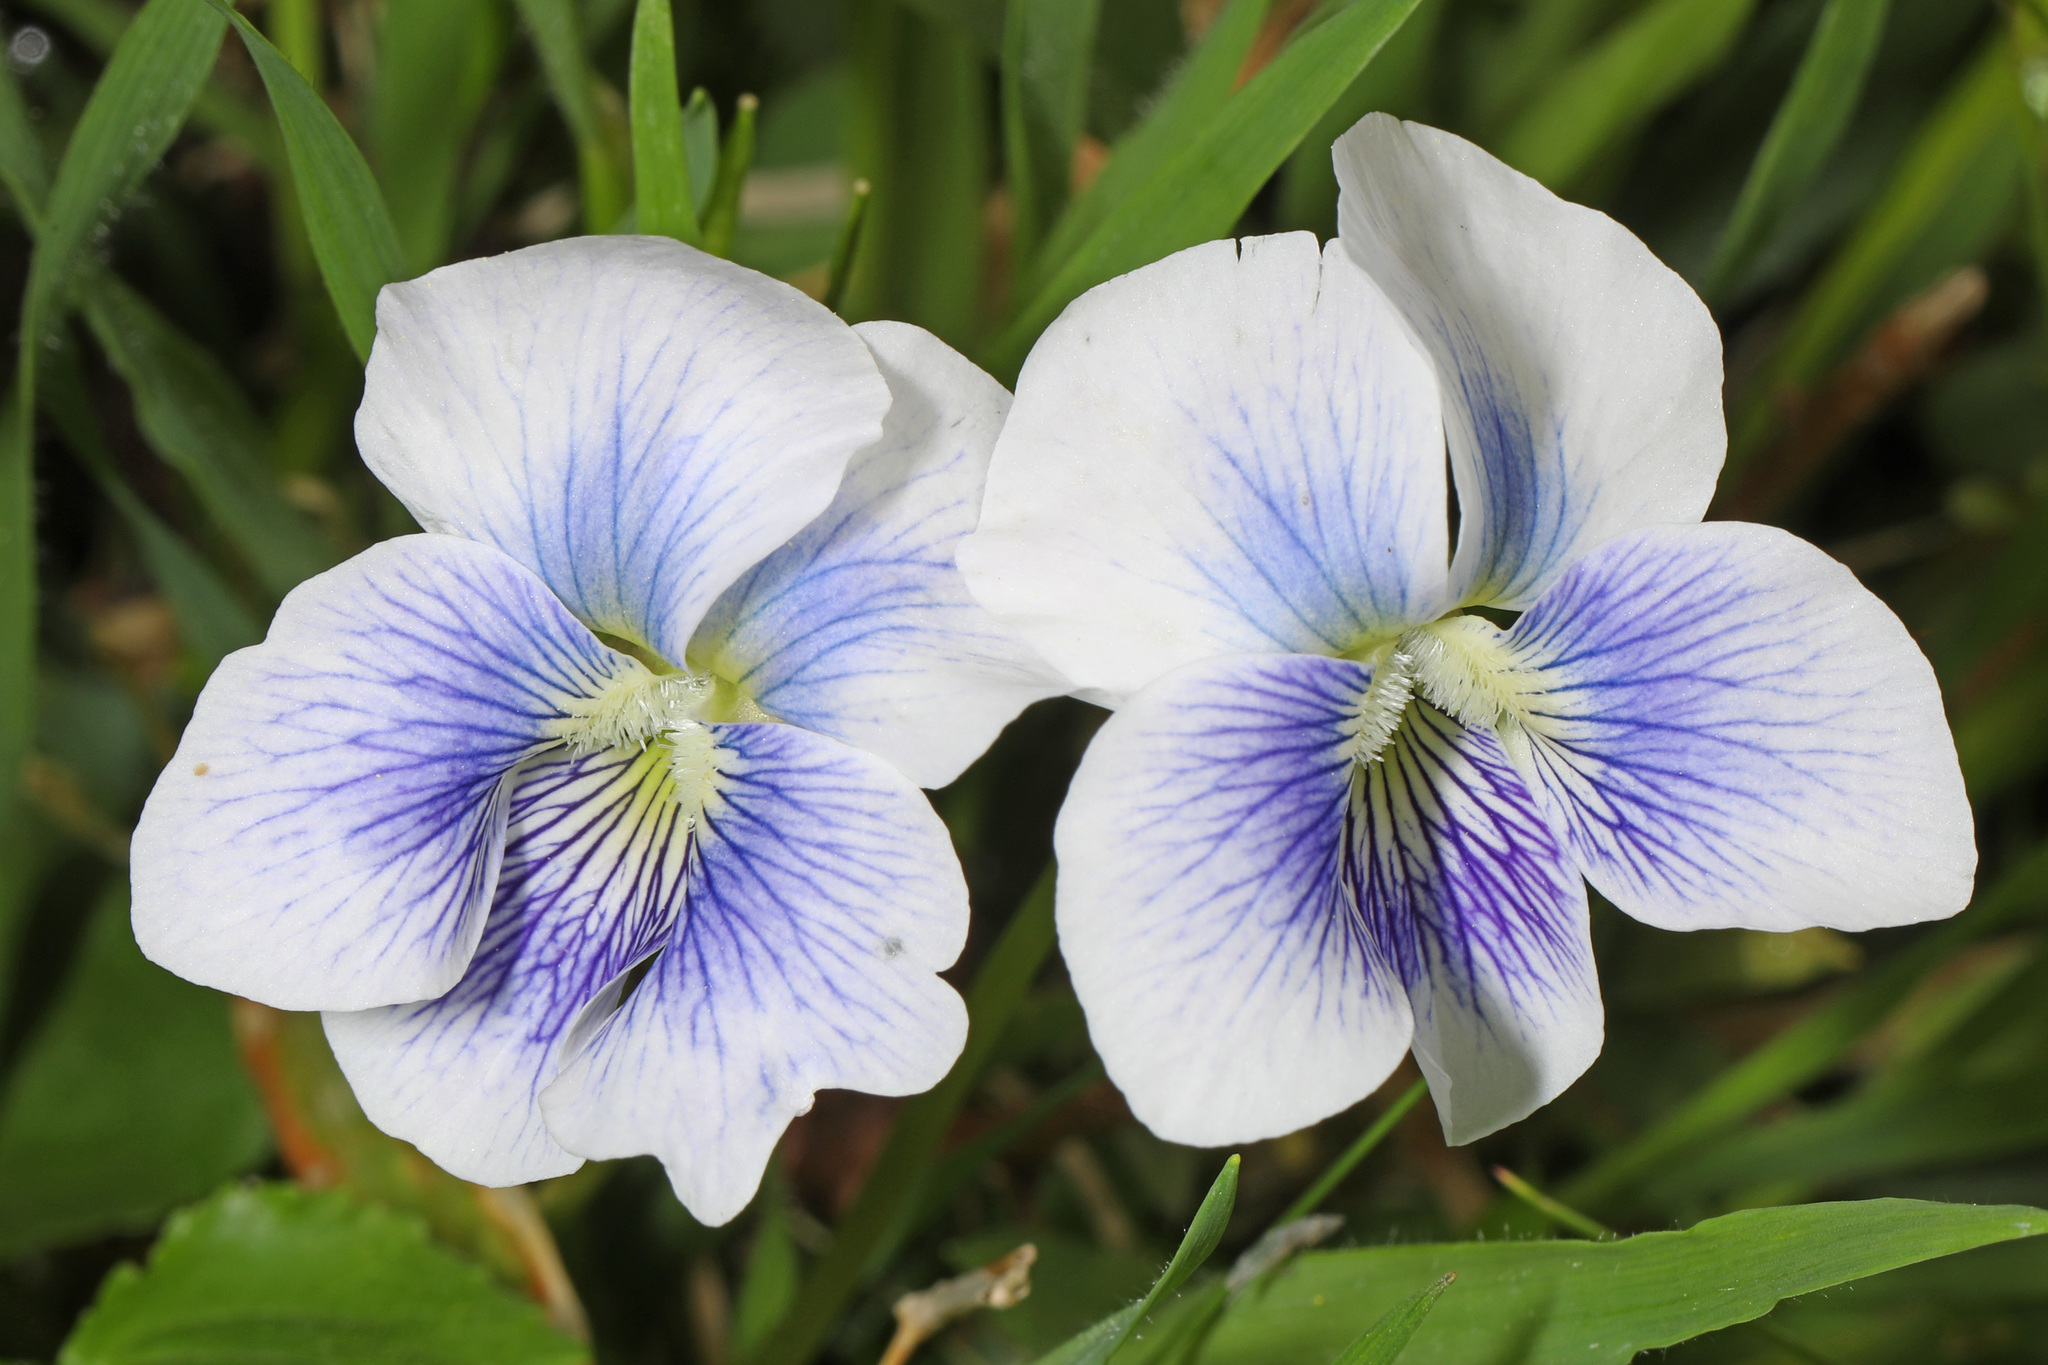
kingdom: Plantae
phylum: Tracheophyta
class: Magnoliopsida
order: Malpighiales
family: Violaceae
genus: Viola
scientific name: Viola sororia
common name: Dooryard violet
